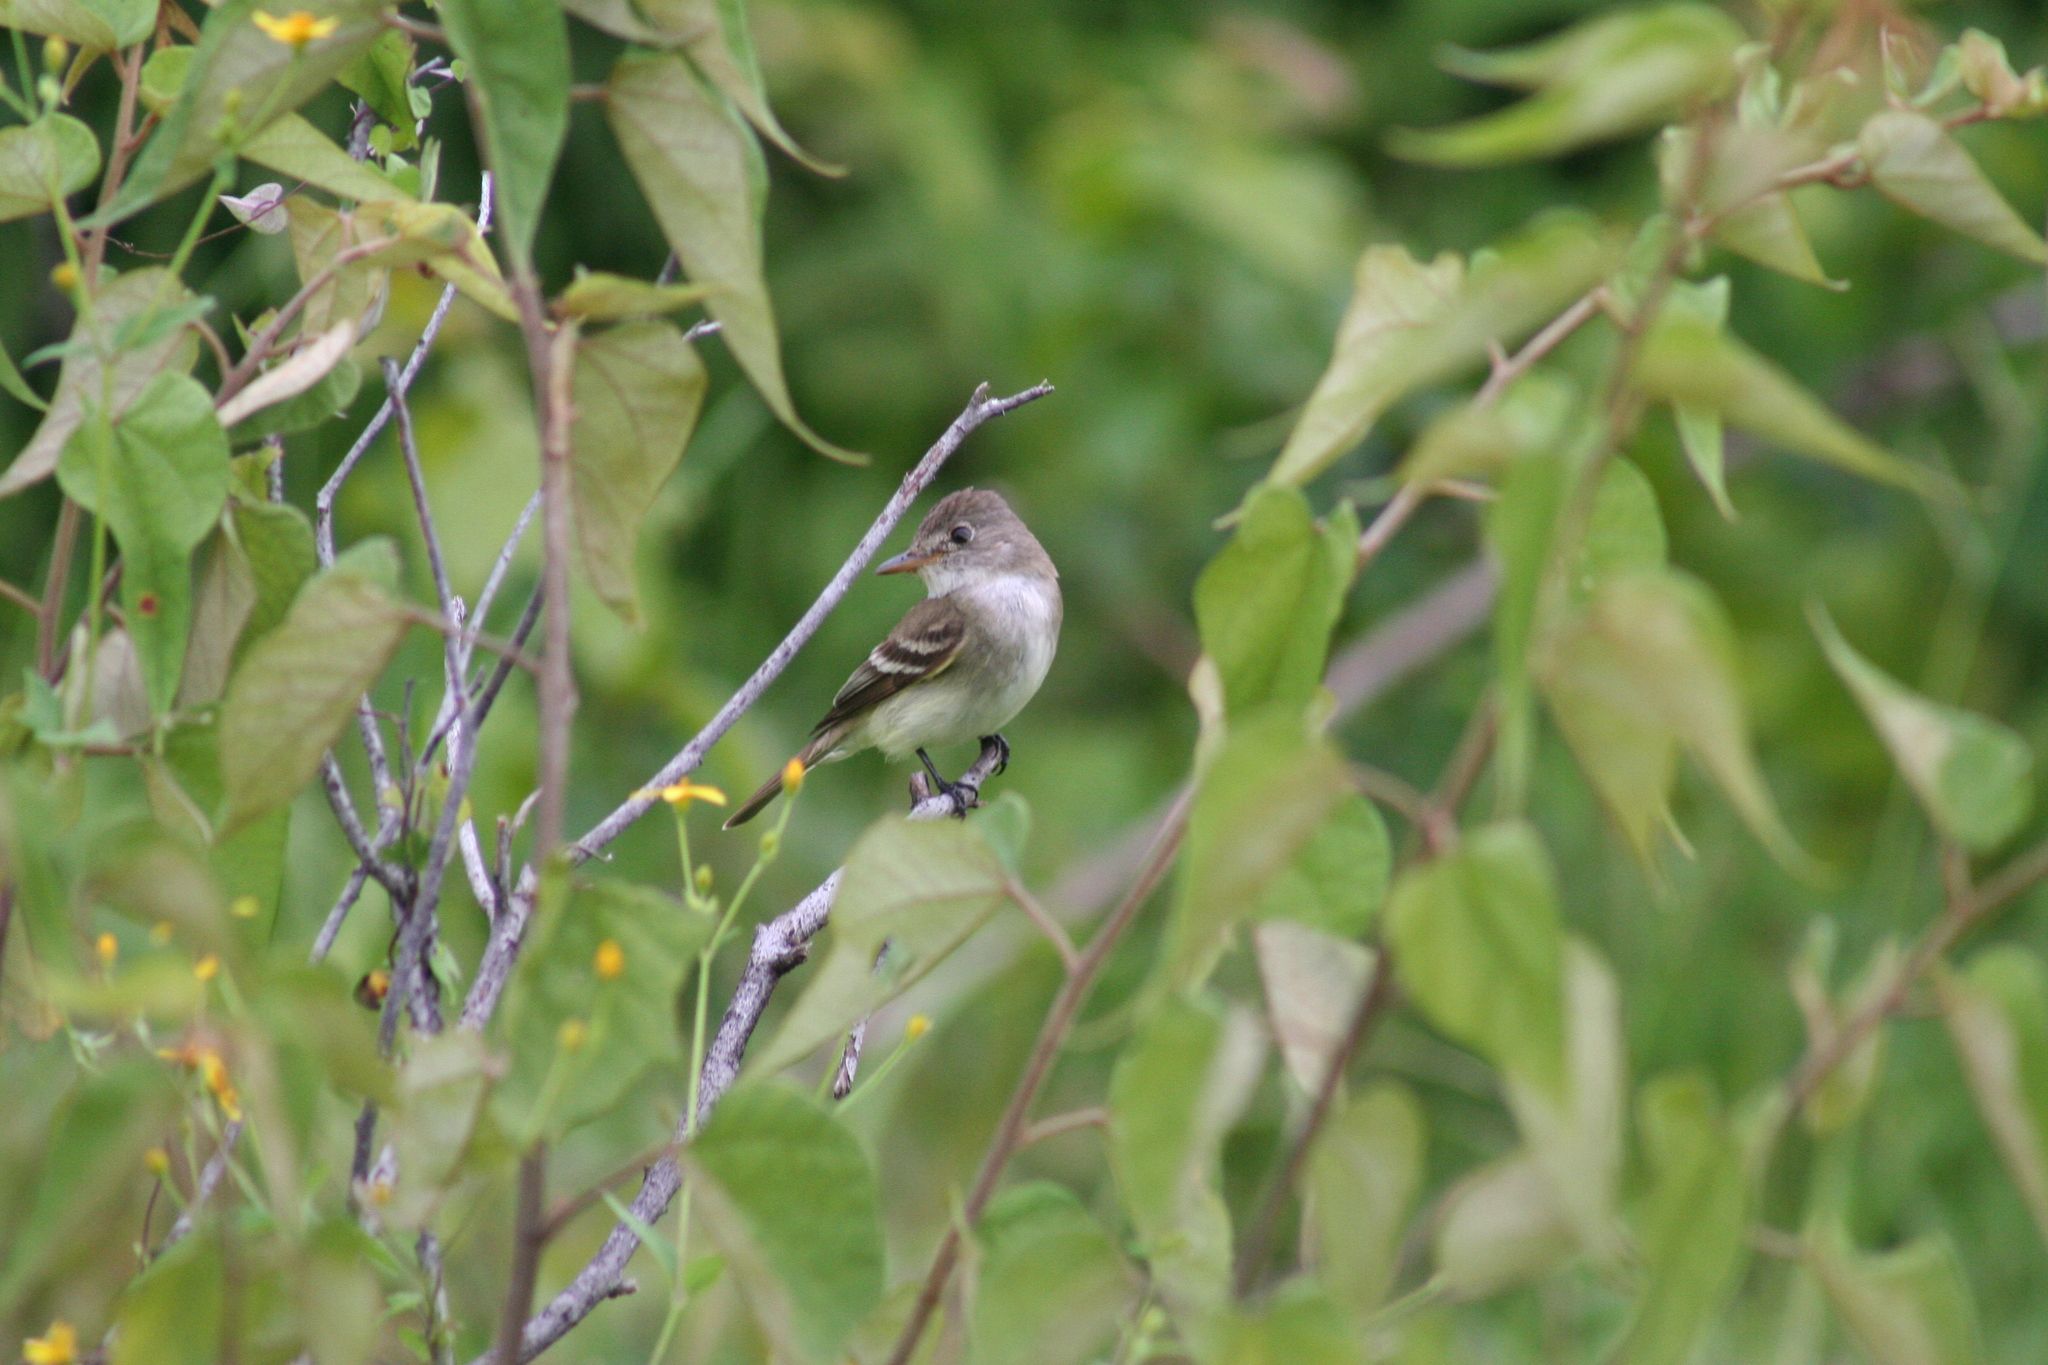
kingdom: Animalia
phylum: Chordata
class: Aves
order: Passeriformes
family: Tyrannidae
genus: Empidonax
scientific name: Empidonax
